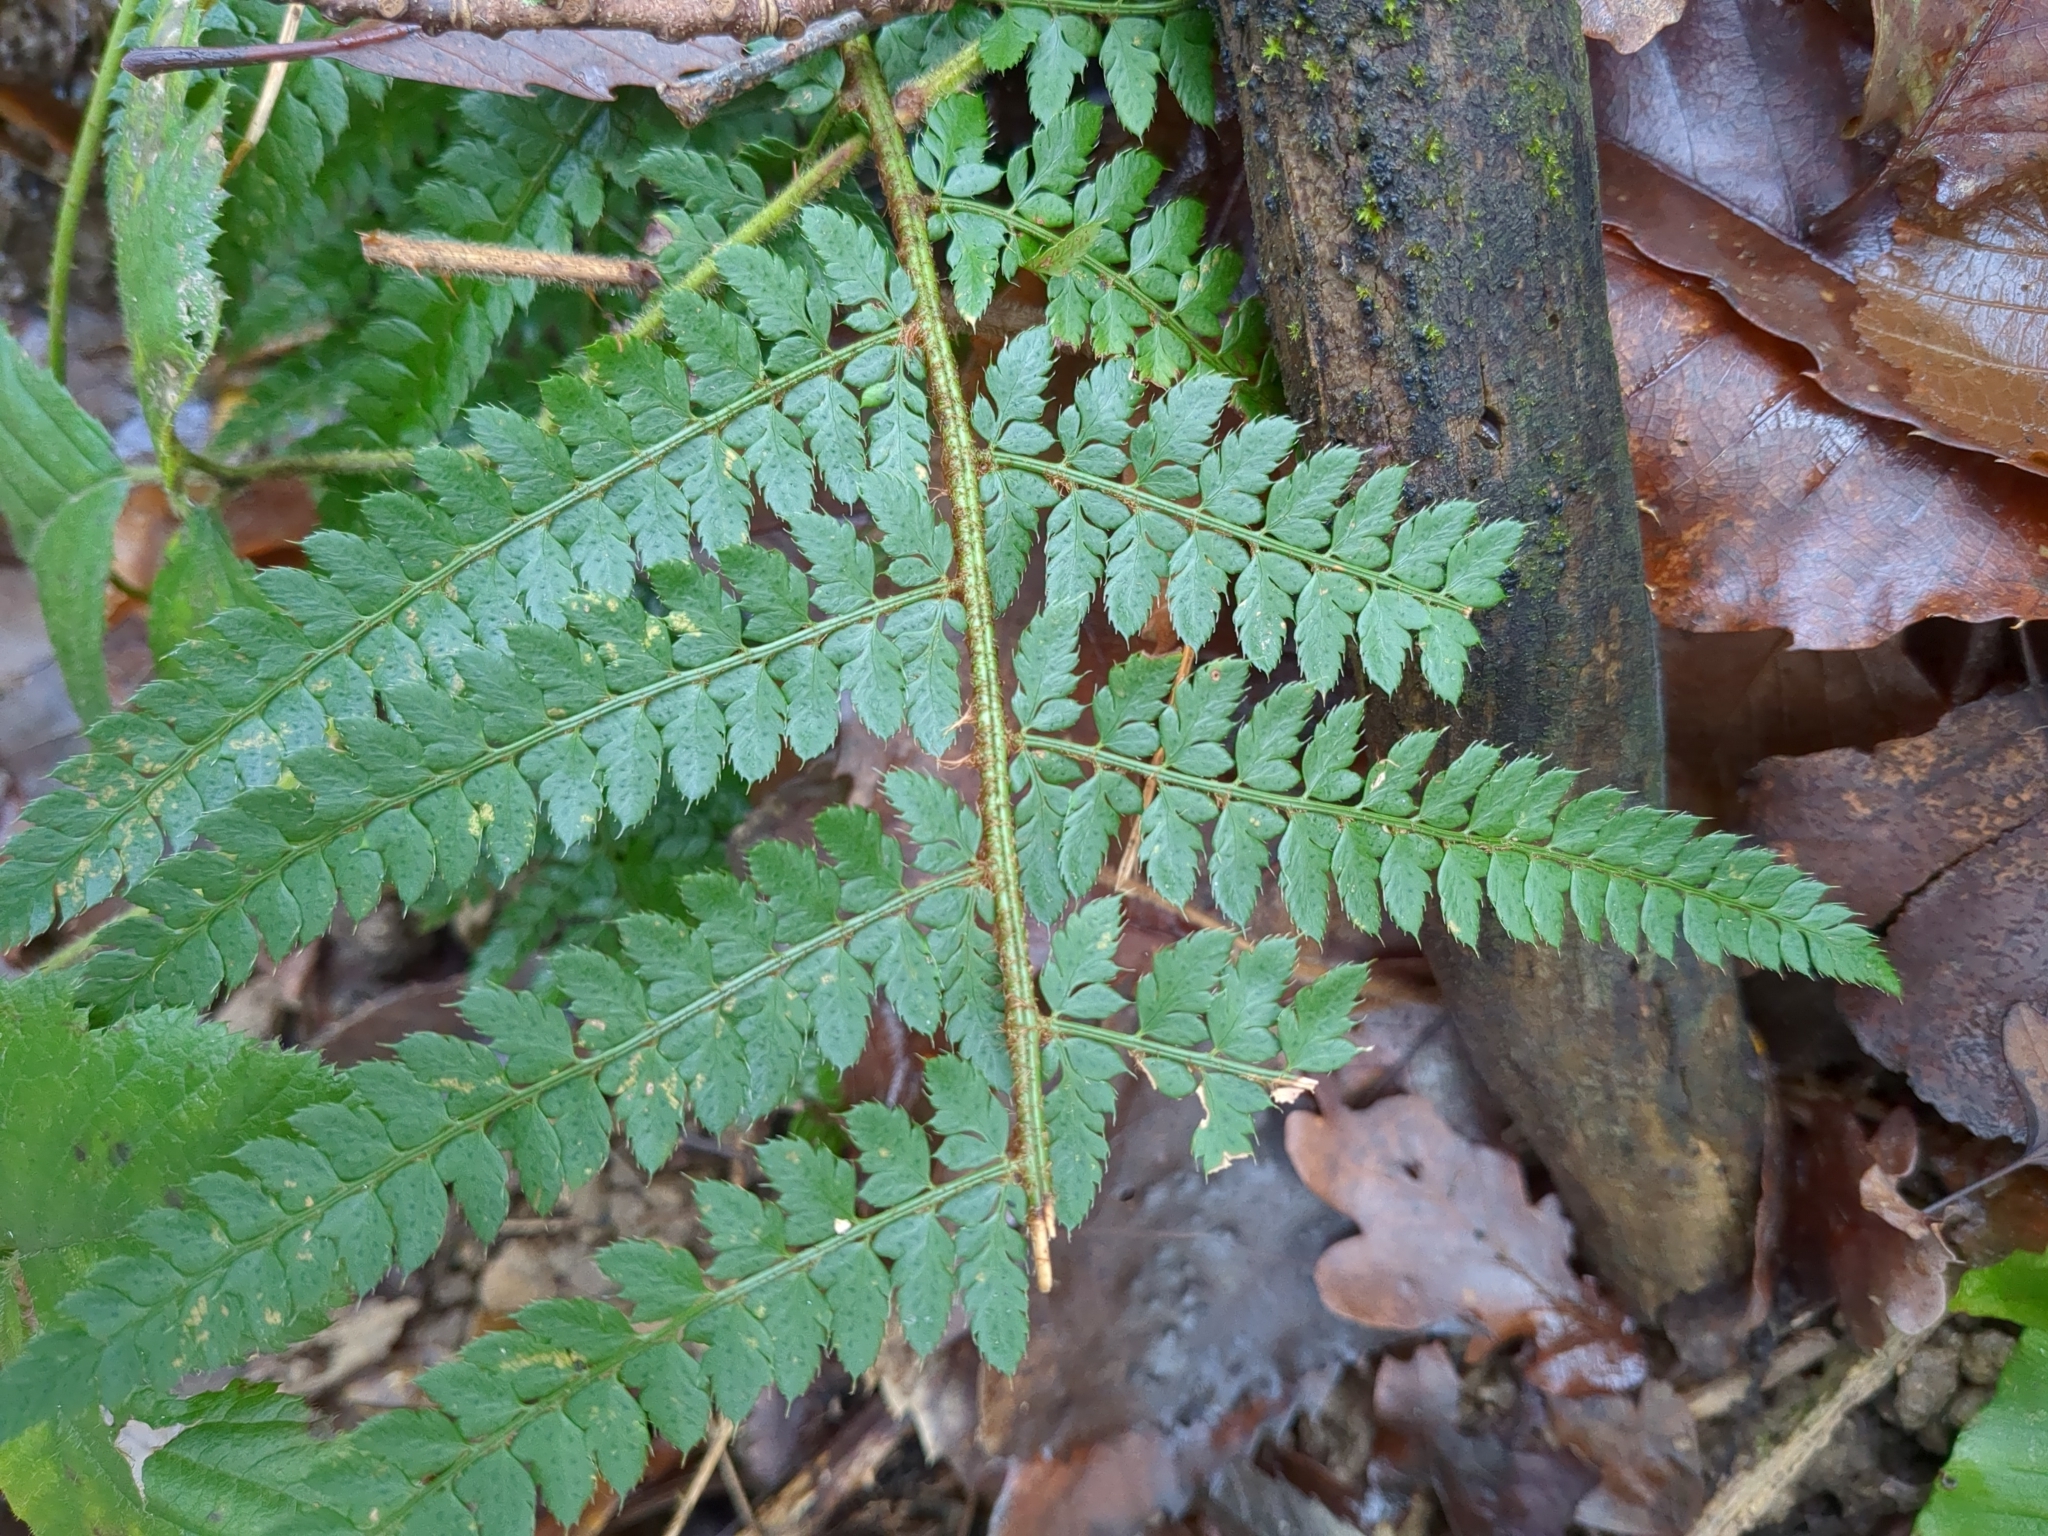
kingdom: Plantae
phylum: Tracheophyta
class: Polypodiopsida
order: Polypodiales
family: Dryopteridaceae
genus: Polystichum
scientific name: Polystichum setiferum
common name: Soft shield-fern
